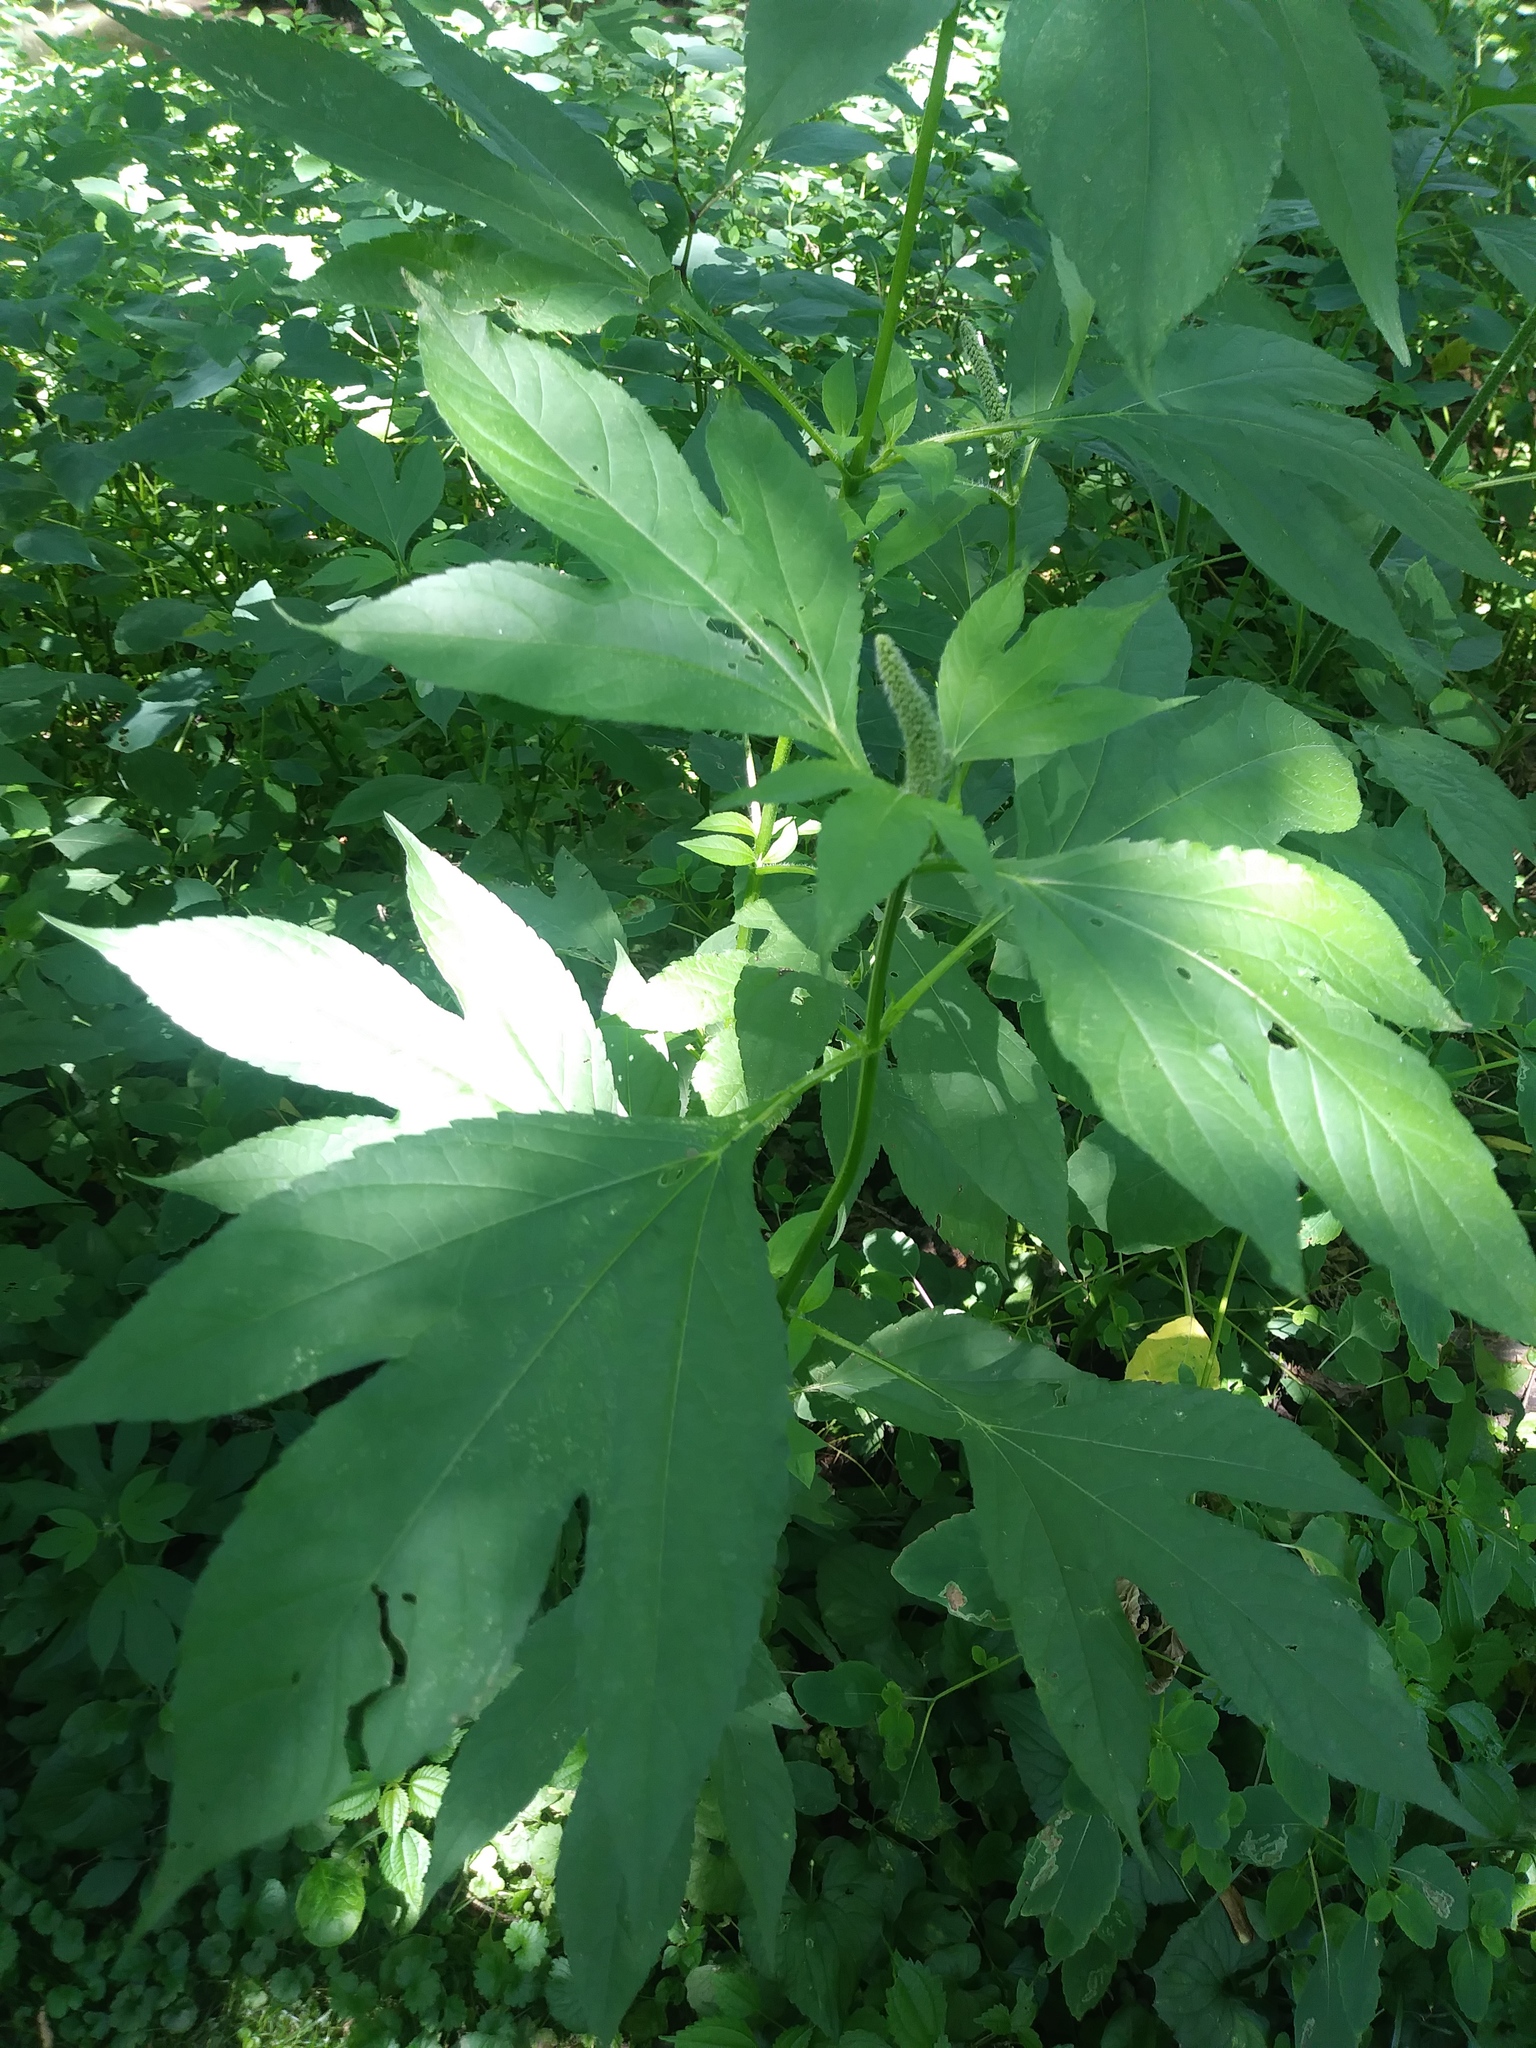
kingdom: Plantae
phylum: Tracheophyta
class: Magnoliopsida
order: Asterales
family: Asteraceae
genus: Ambrosia
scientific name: Ambrosia trifida
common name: Giant ragweed
